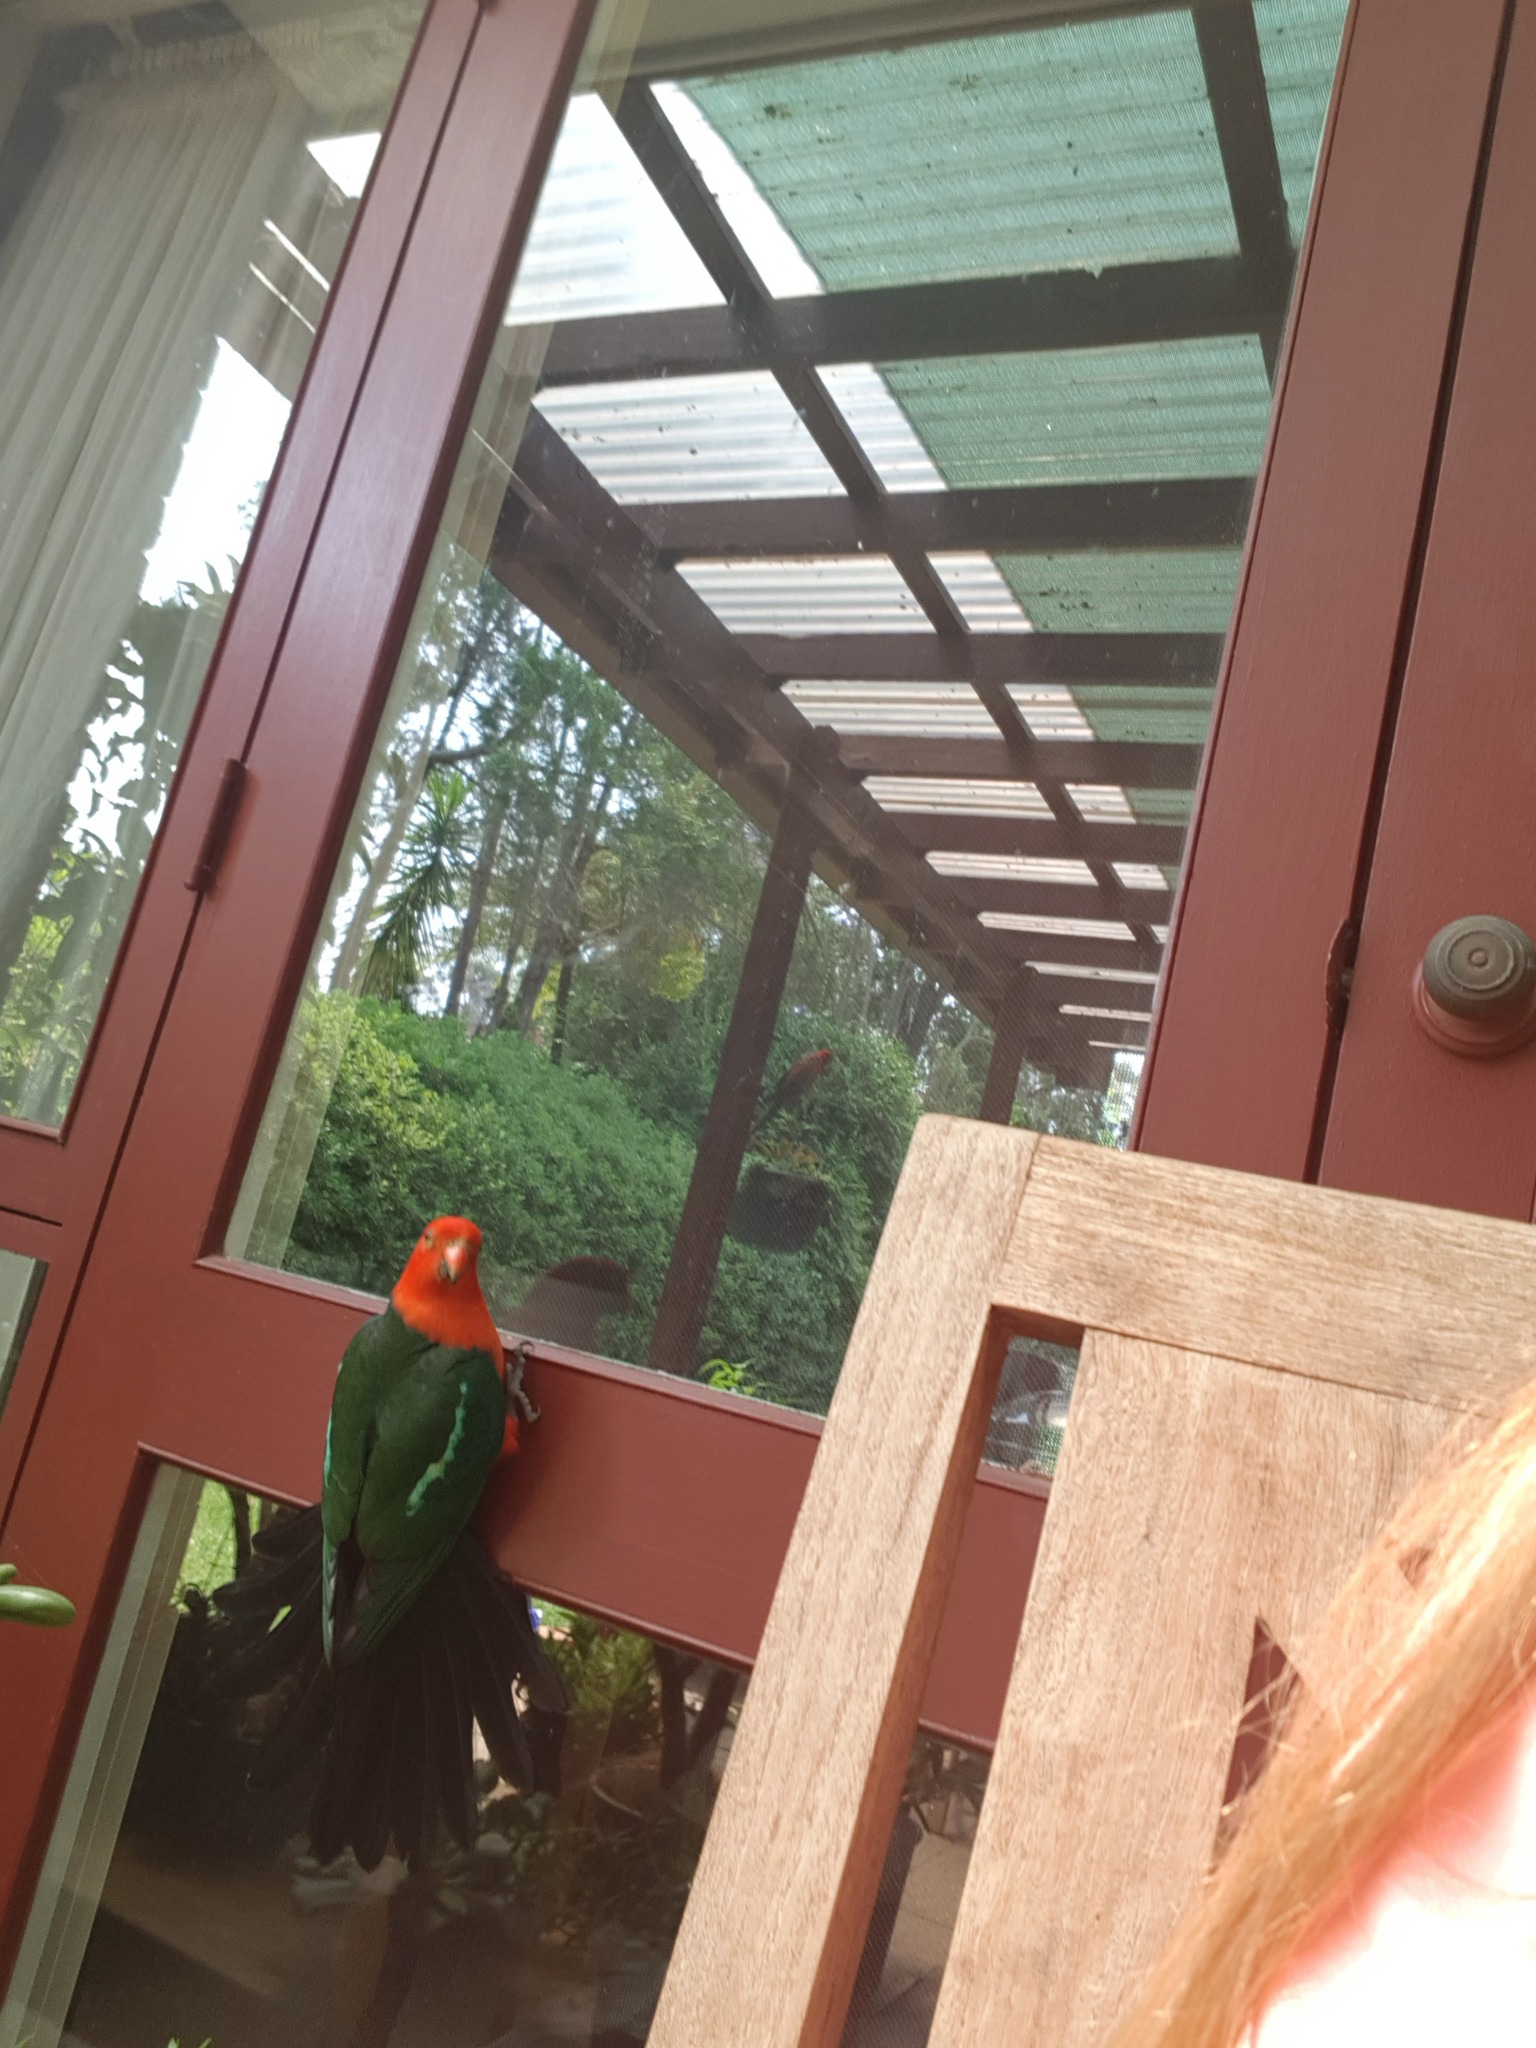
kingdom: Animalia
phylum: Chordata
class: Aves
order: Psittaciformes
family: Psittacidae
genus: Alisterus
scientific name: Alisterus scapularis
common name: Australian king parrot
